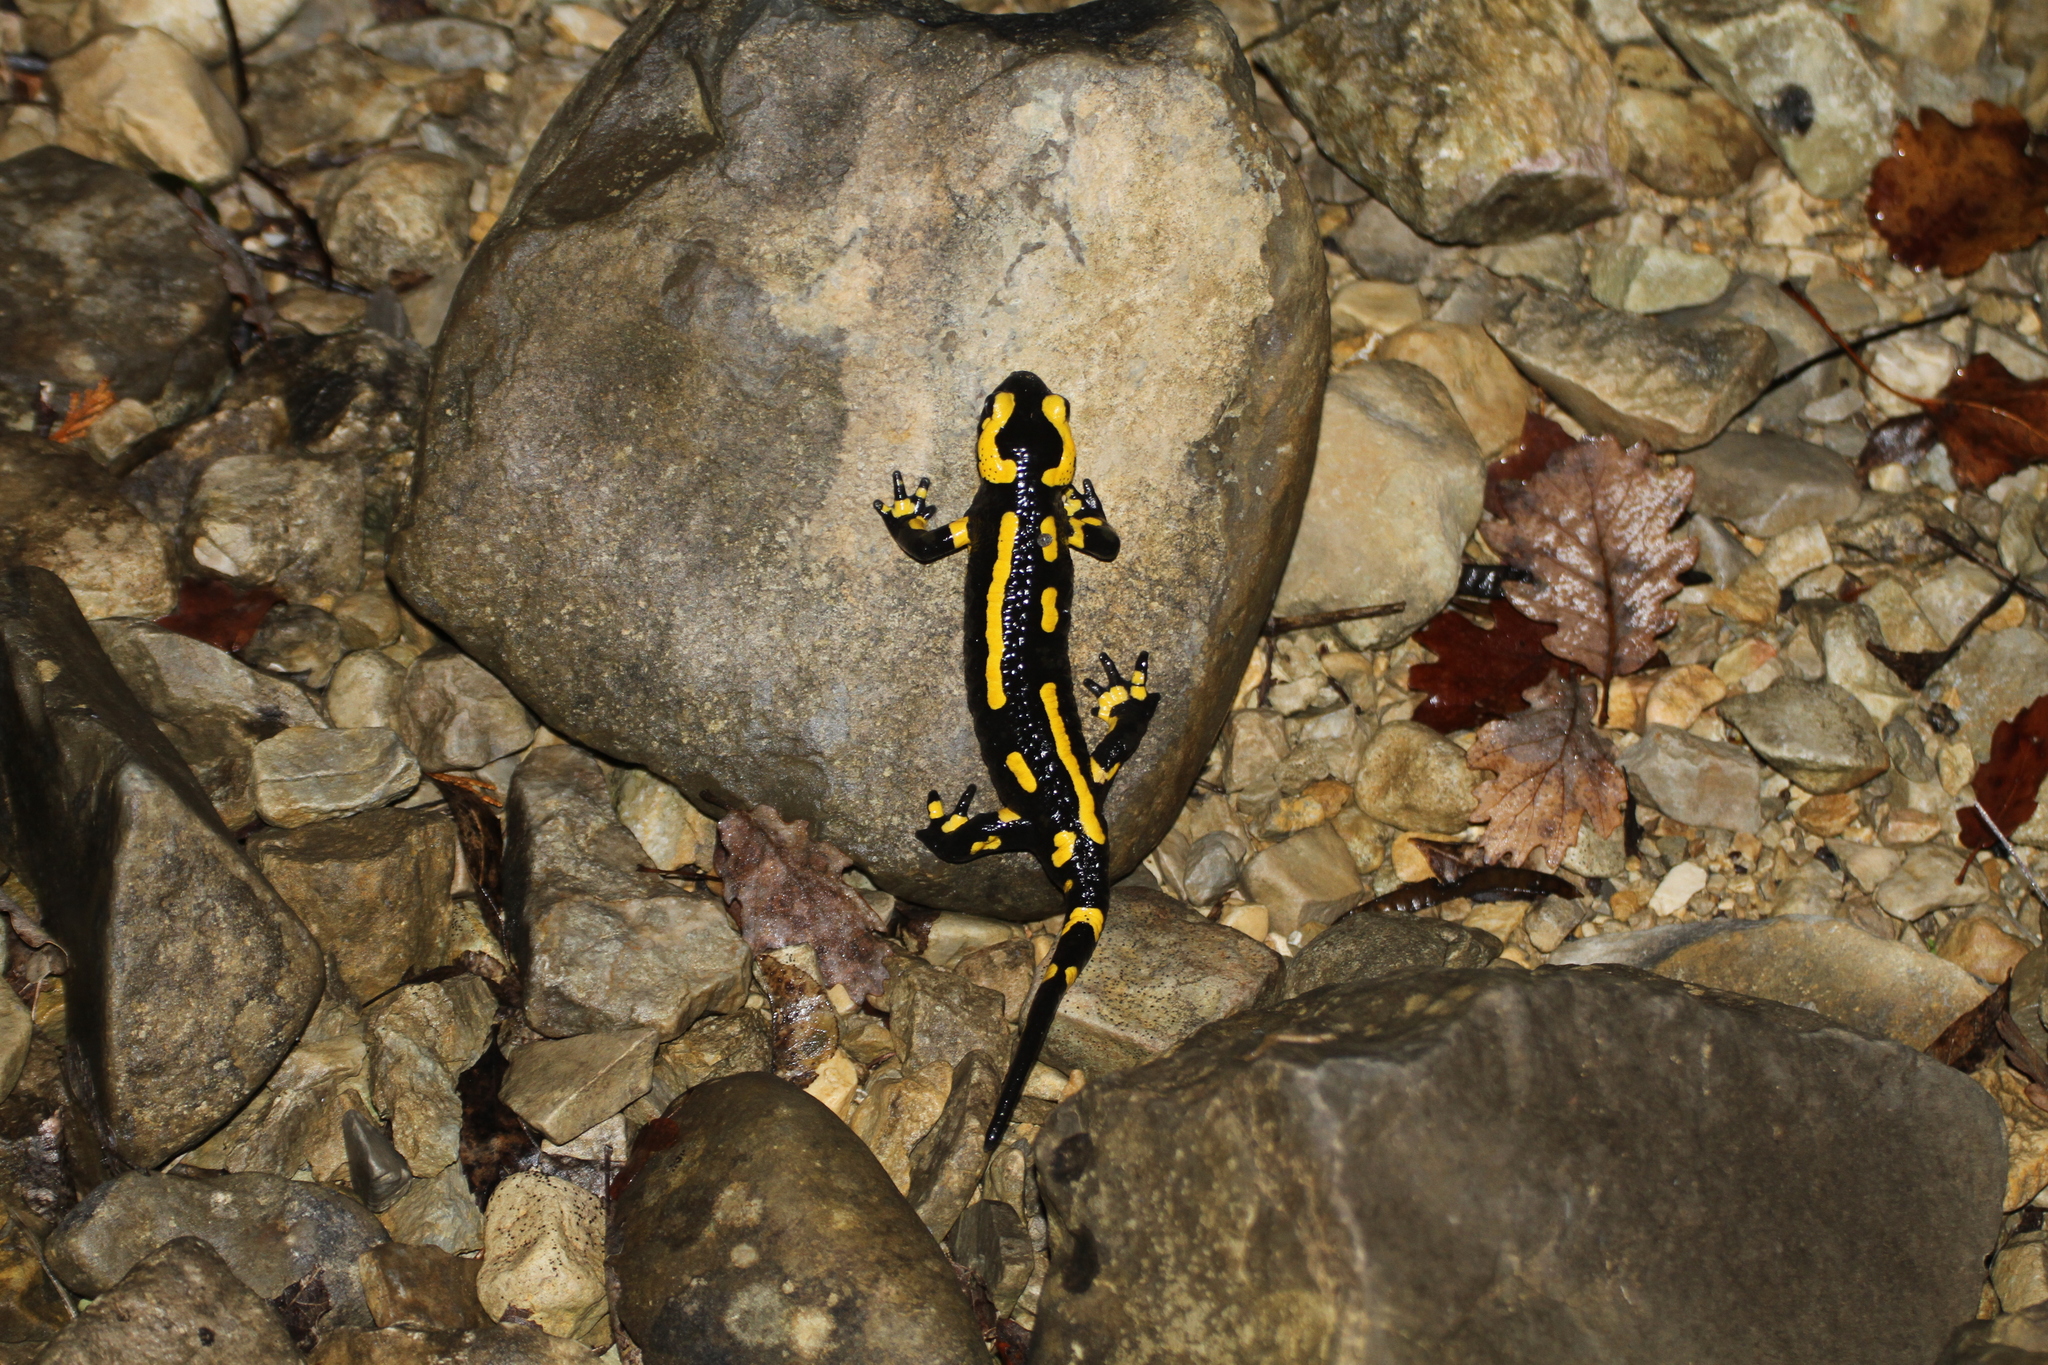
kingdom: Animalia
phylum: Chordata
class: Amphibia
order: Caudata
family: Salamandridae
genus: Salamandra
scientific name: Salamandra salamandra
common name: Fire salamander
